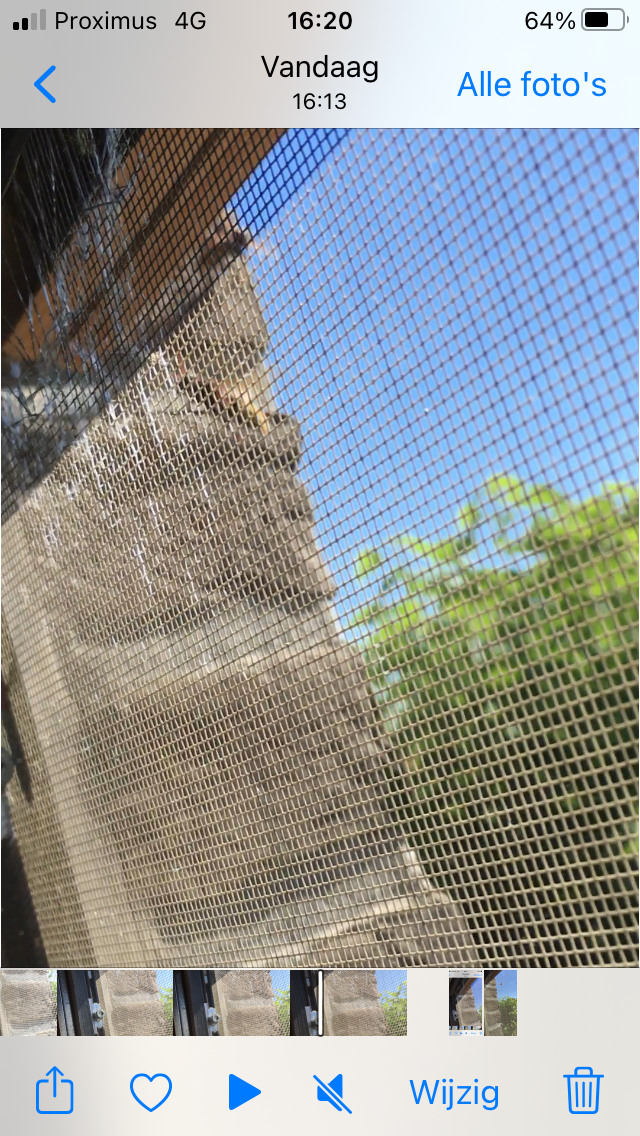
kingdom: Animalia
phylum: Arthropoda
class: Insecta
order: Hymenoptera
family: Vespidae
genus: Vespa
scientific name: Vespa crabro
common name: Hornet
